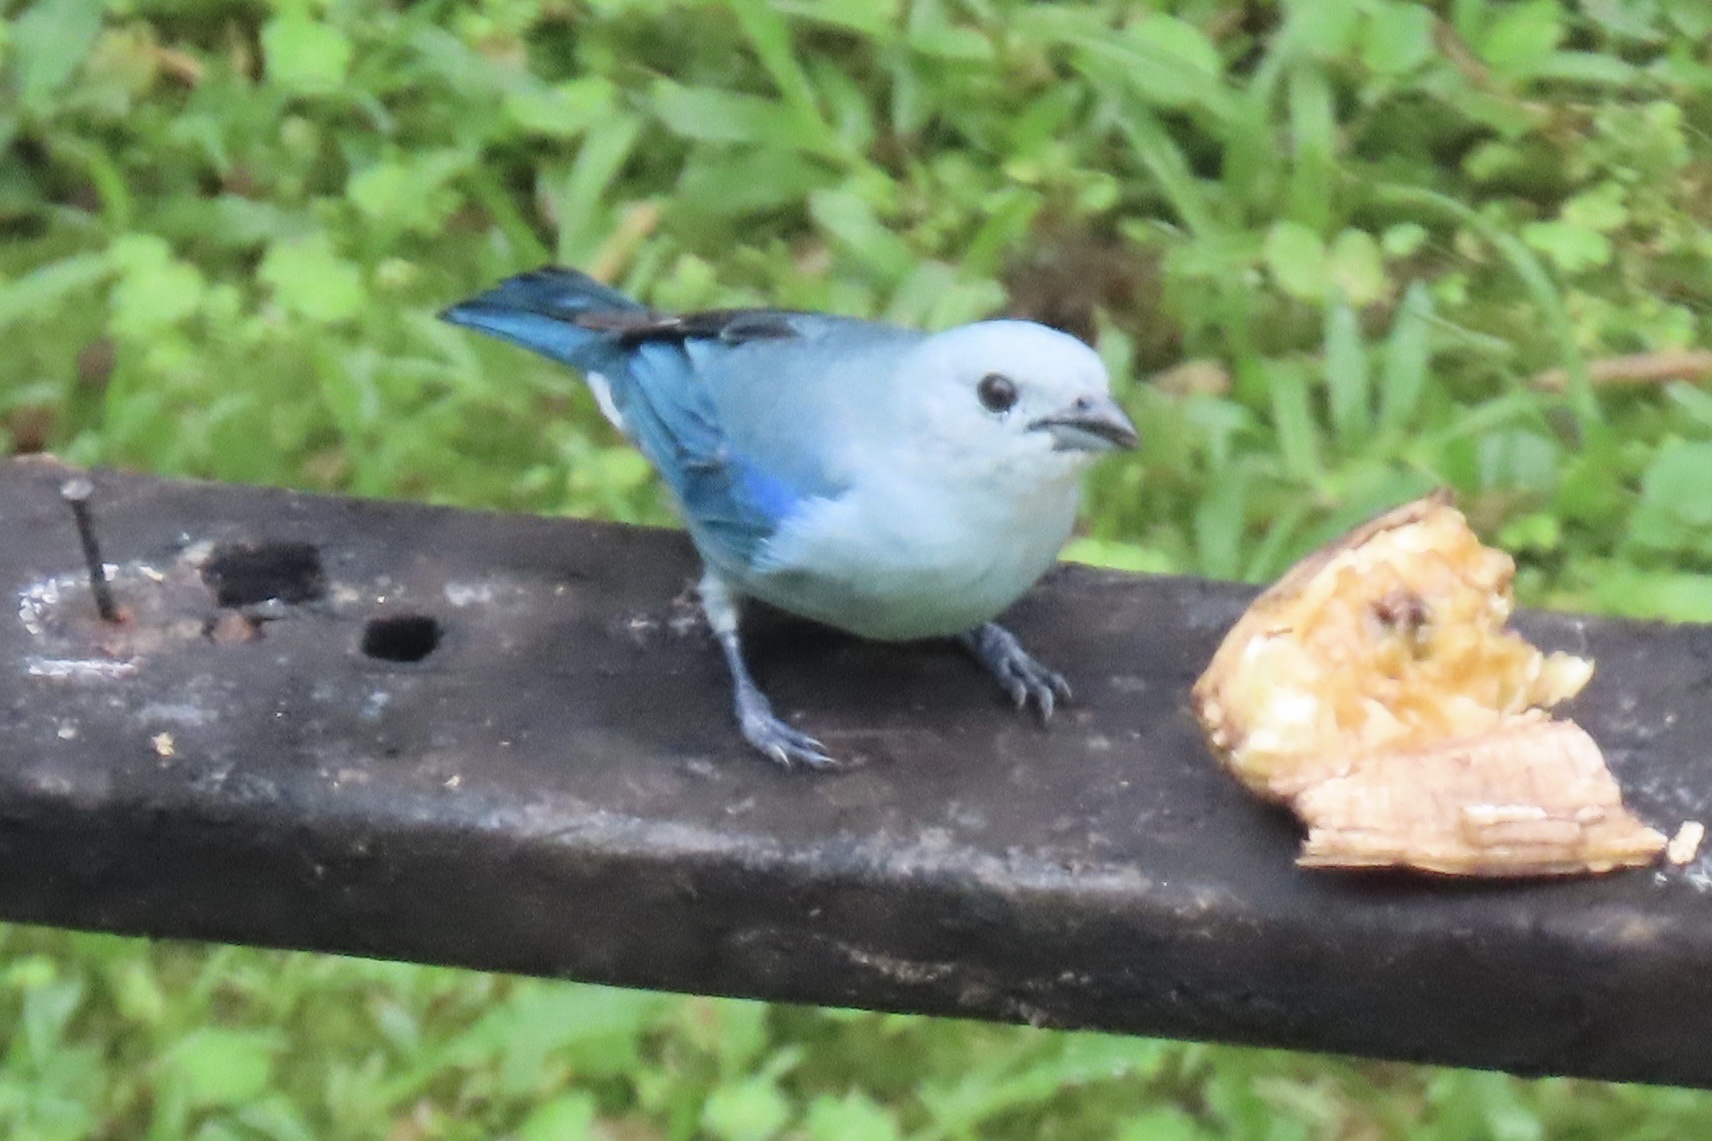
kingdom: Animalia
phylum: Chordata
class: Aves
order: Passeriformes
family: Thraupidae
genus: Thraupis
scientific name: Thraupis episcopus
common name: Blue-grey tanager
